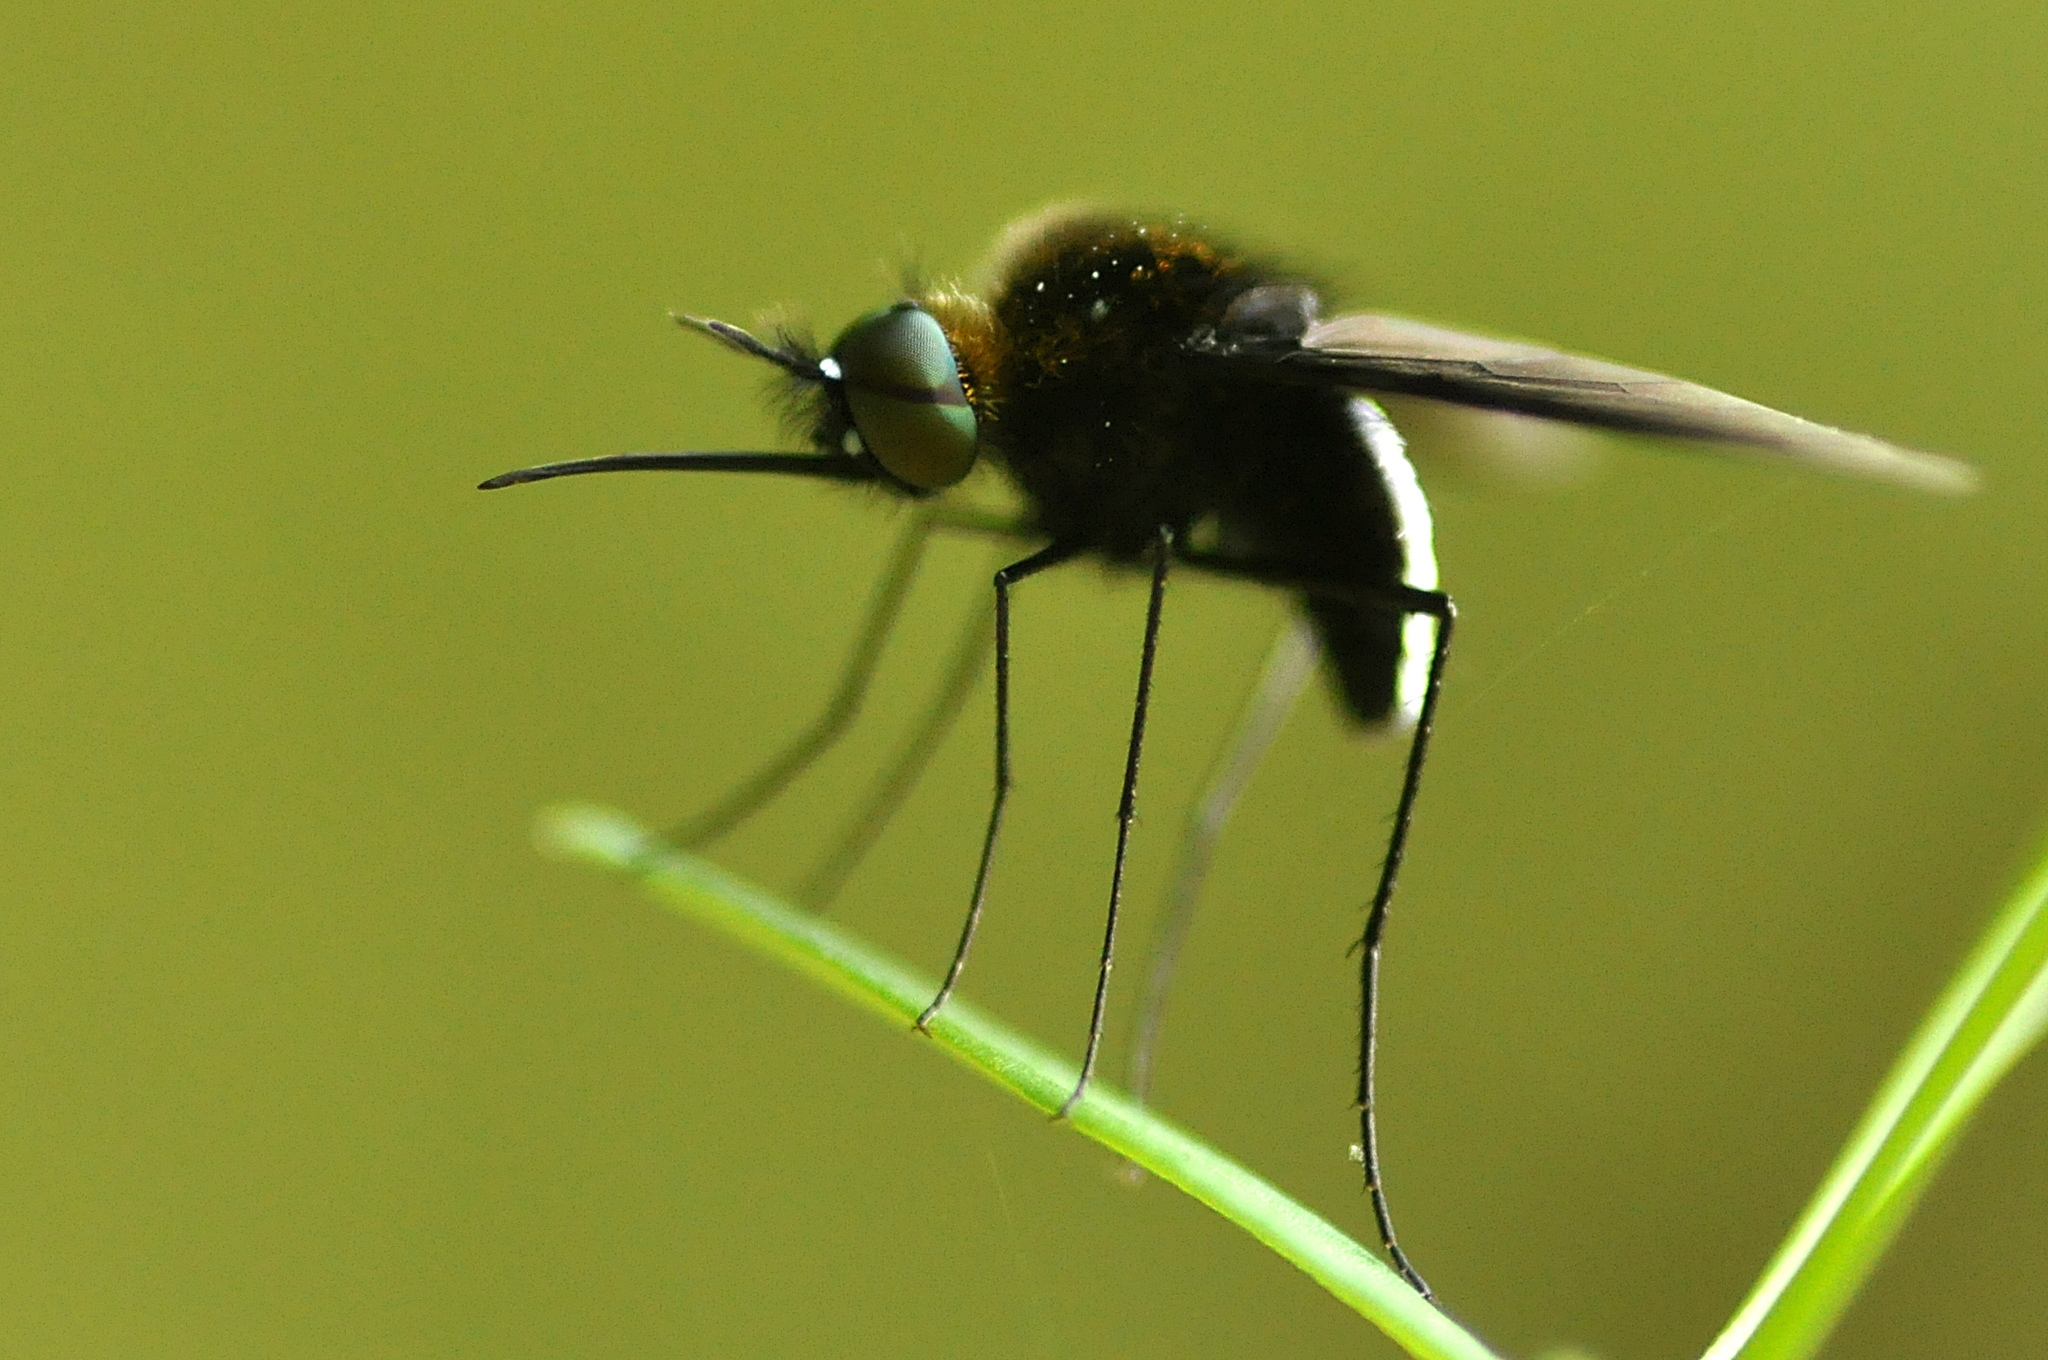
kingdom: Animalia
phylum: Arthropoda
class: Insecta
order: Diptera
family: Bombyliidae
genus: Euchariomyia
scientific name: Euchariomyia dives
